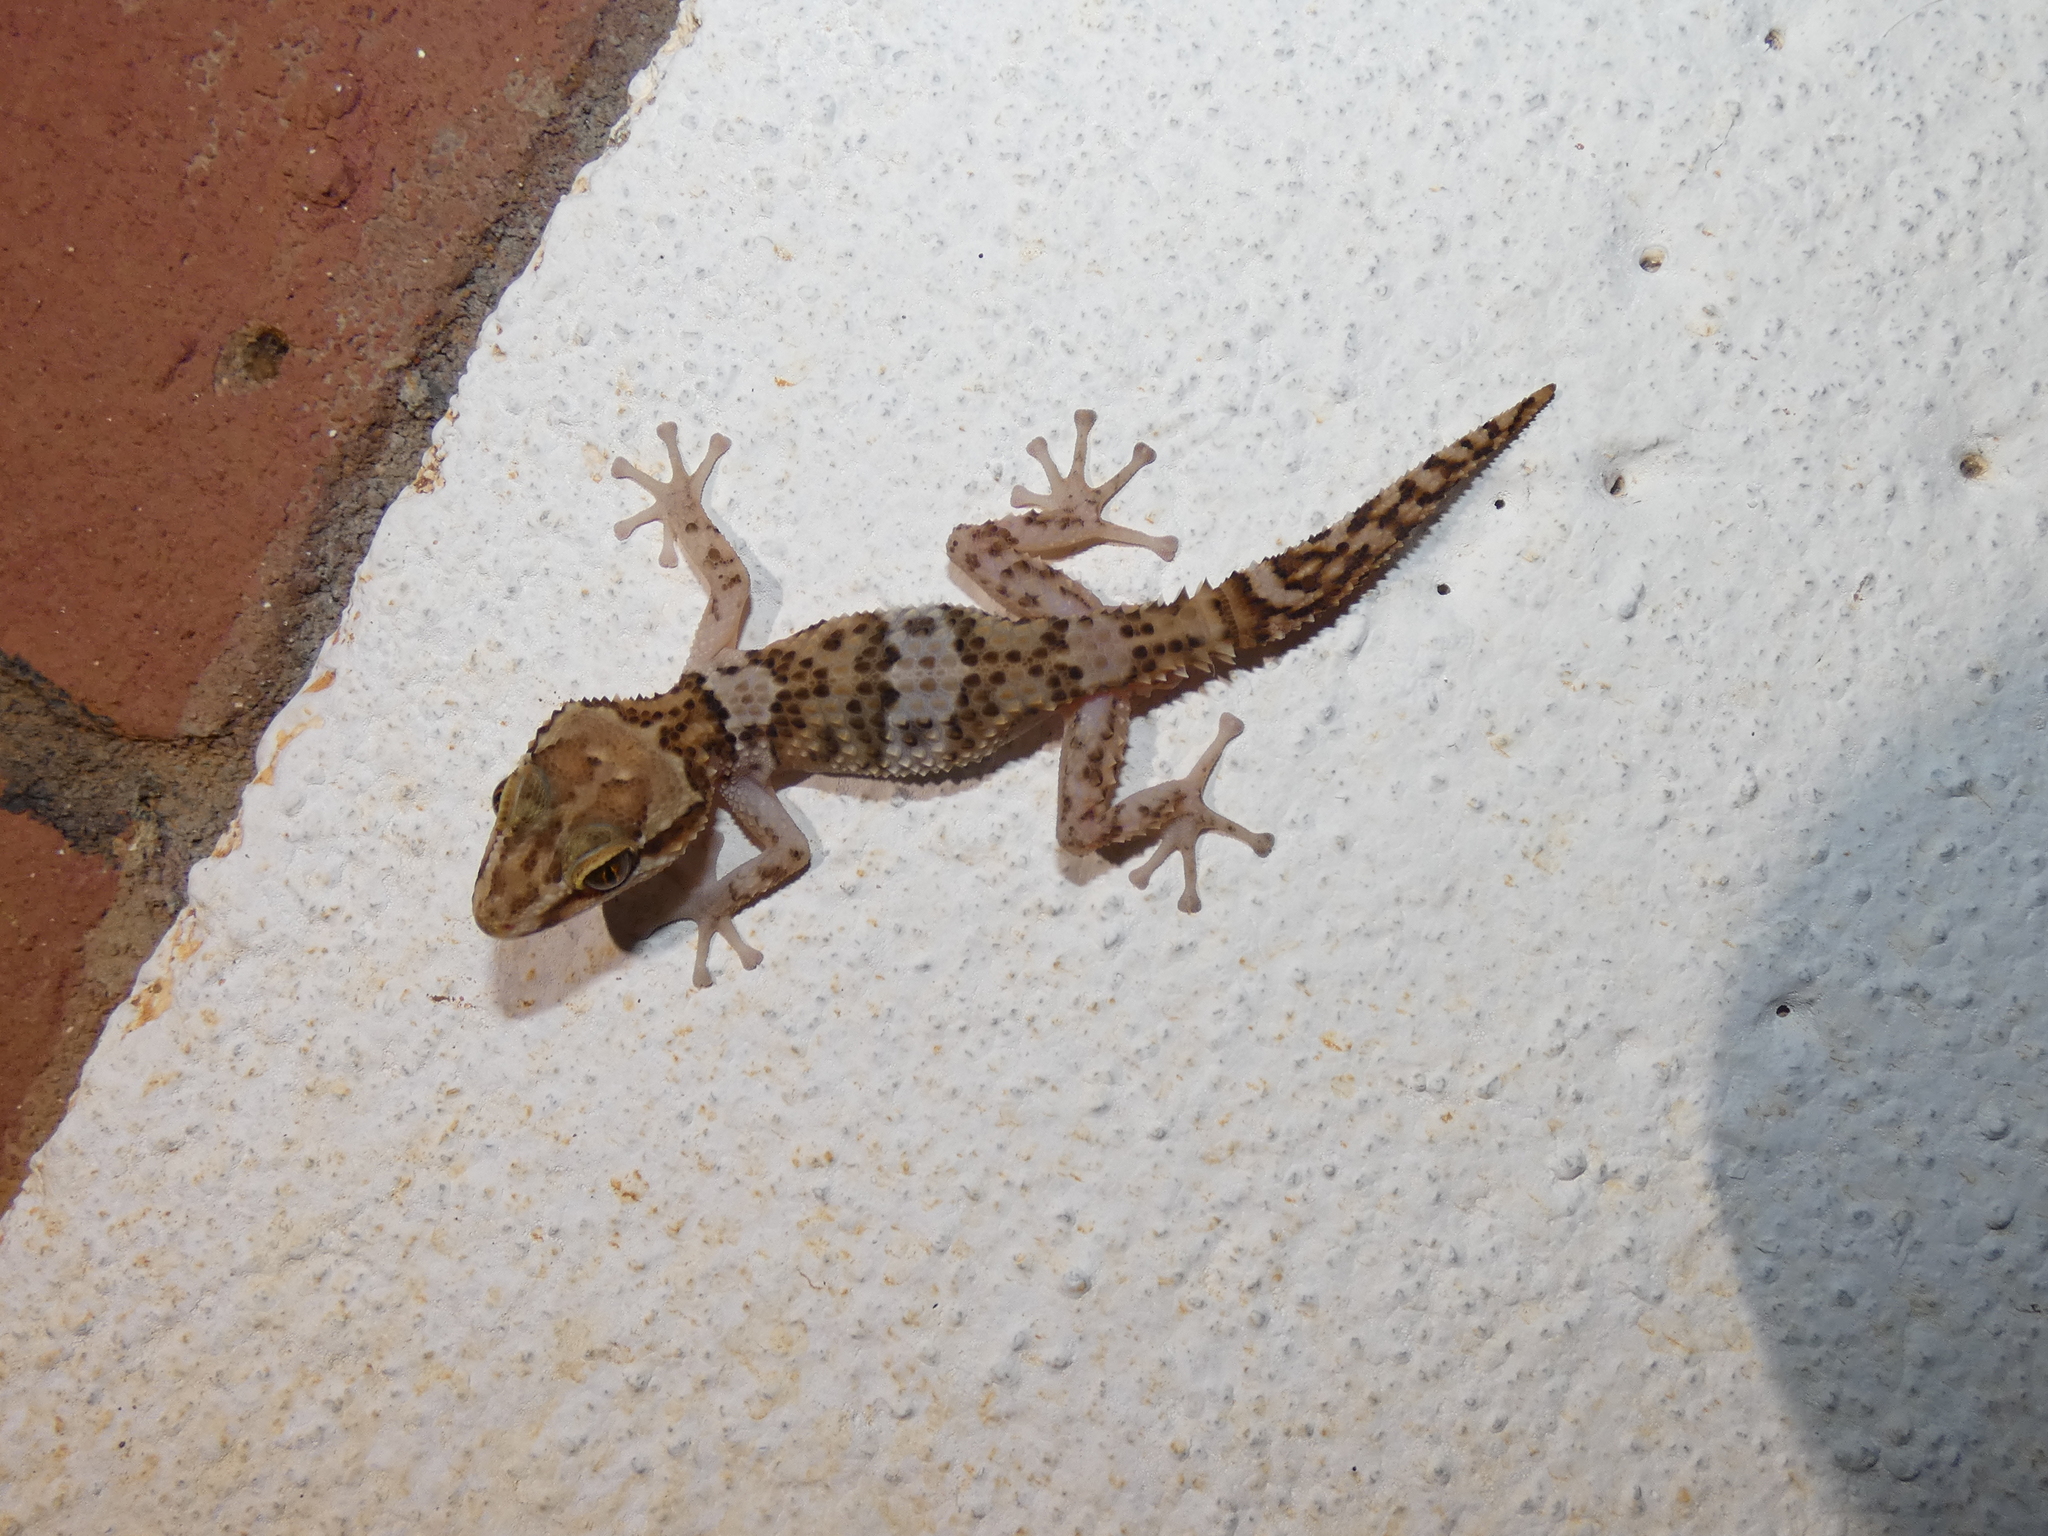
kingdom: Animalia
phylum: Chordata
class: Squamata
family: Gekkonidae
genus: Paroedura
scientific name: Paroedura rennerae
